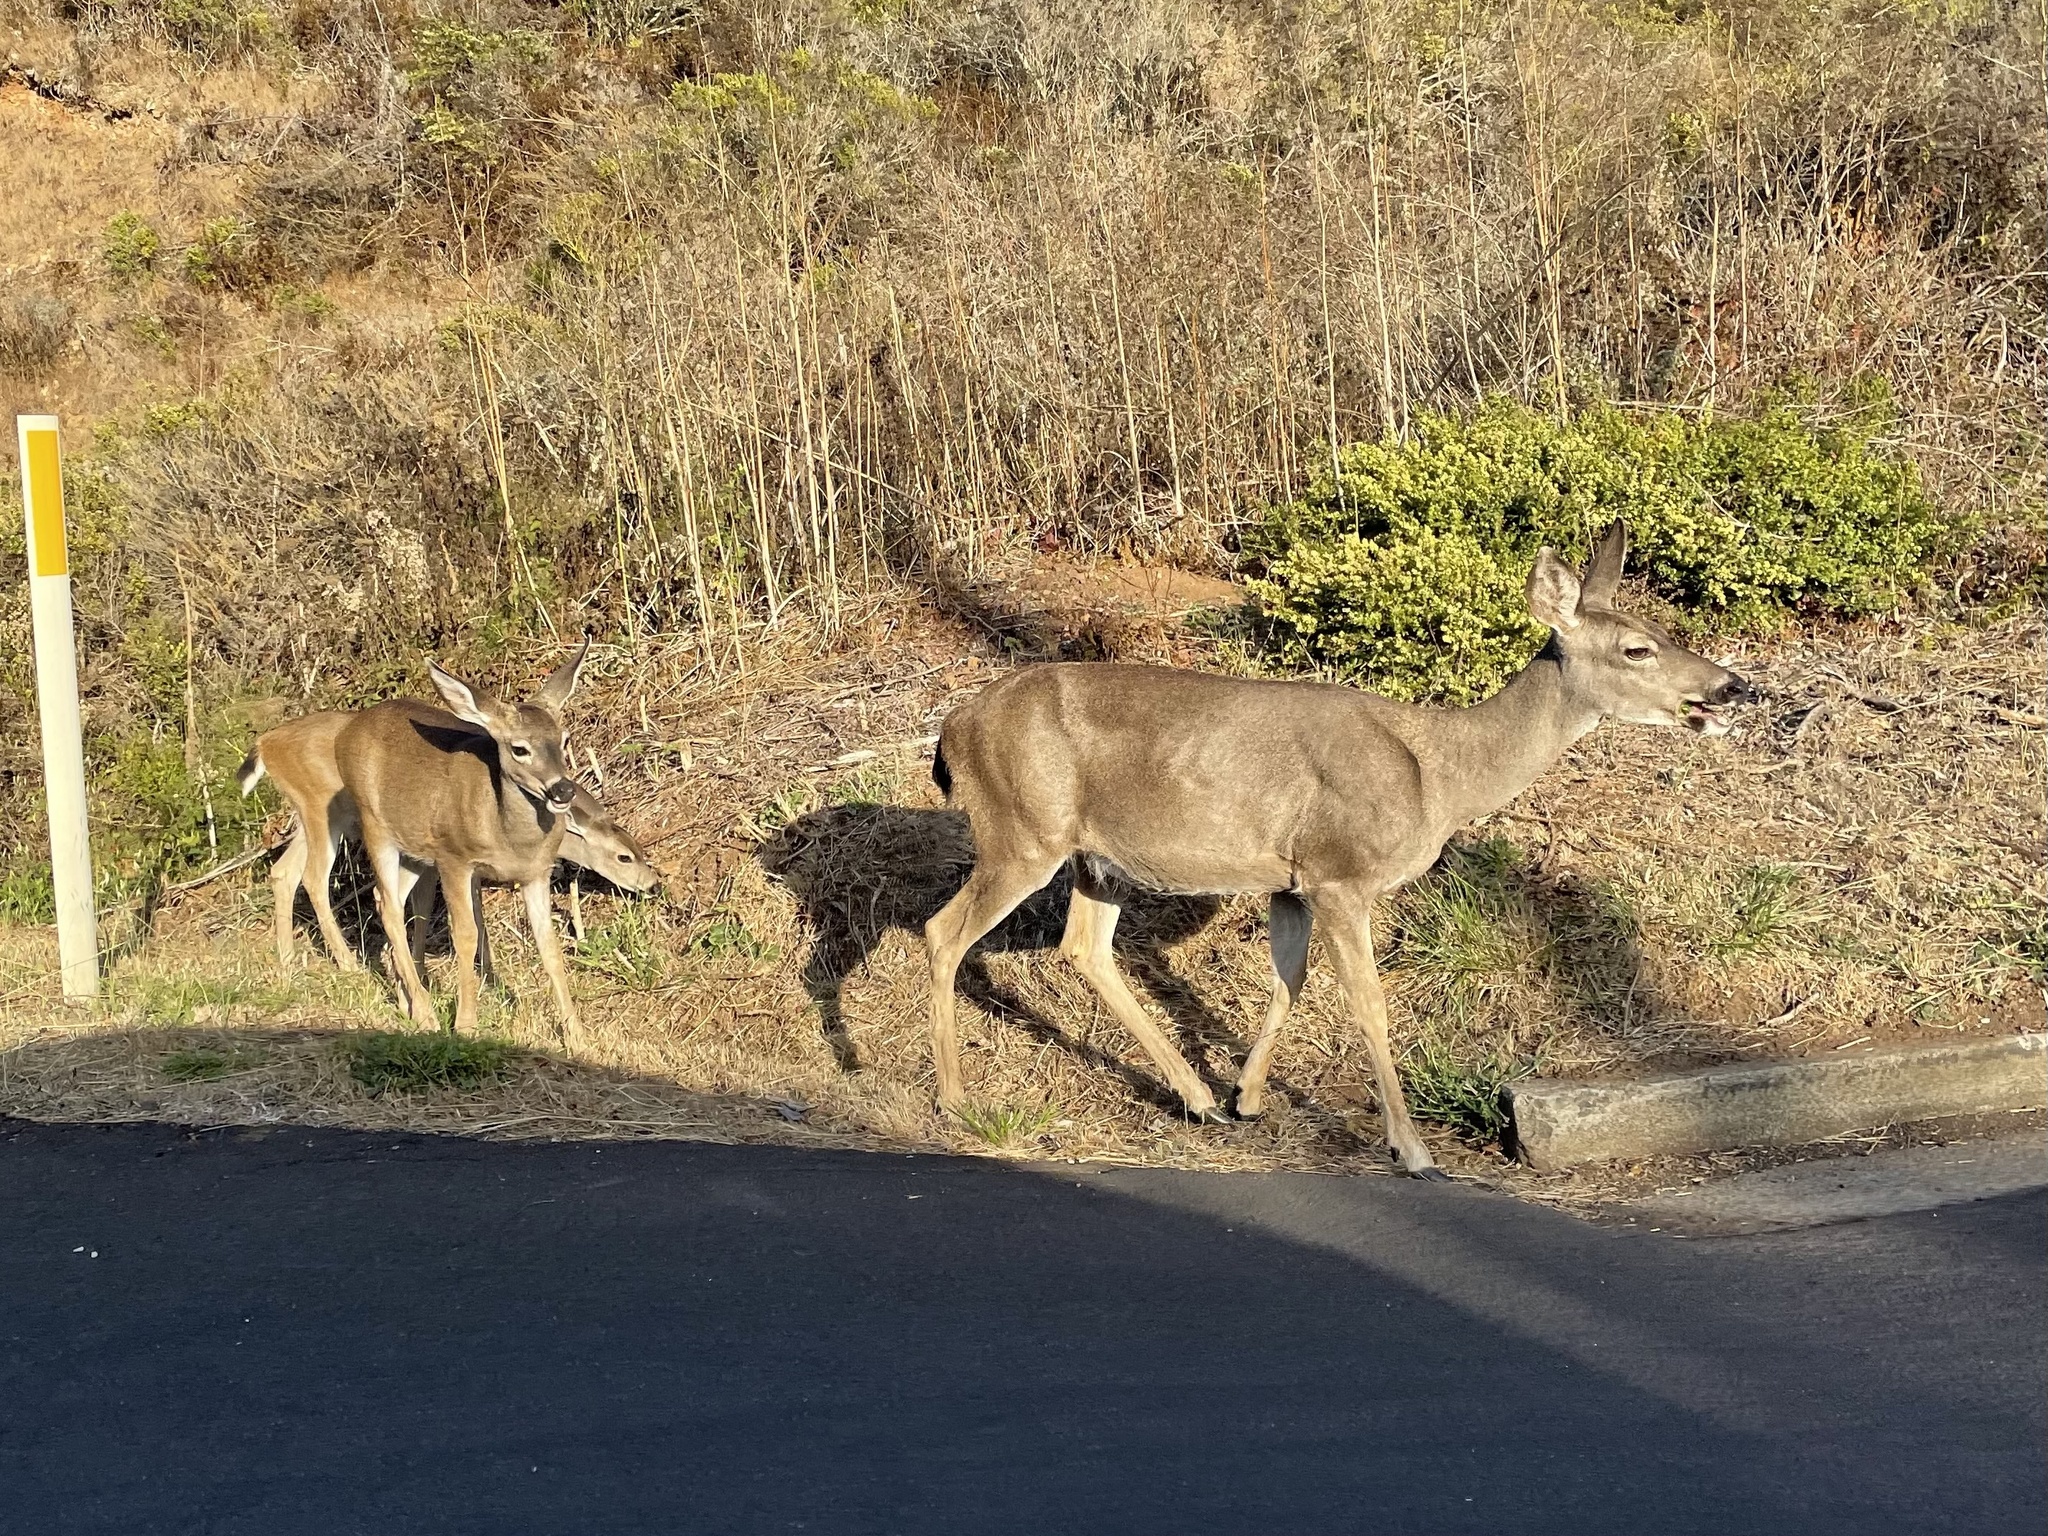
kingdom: Animalia
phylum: Chordata
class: Mammalia
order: Artiodactyla
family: Cervidae
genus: Odocoileus
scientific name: Odocoileus hemionus
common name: Mule deer
